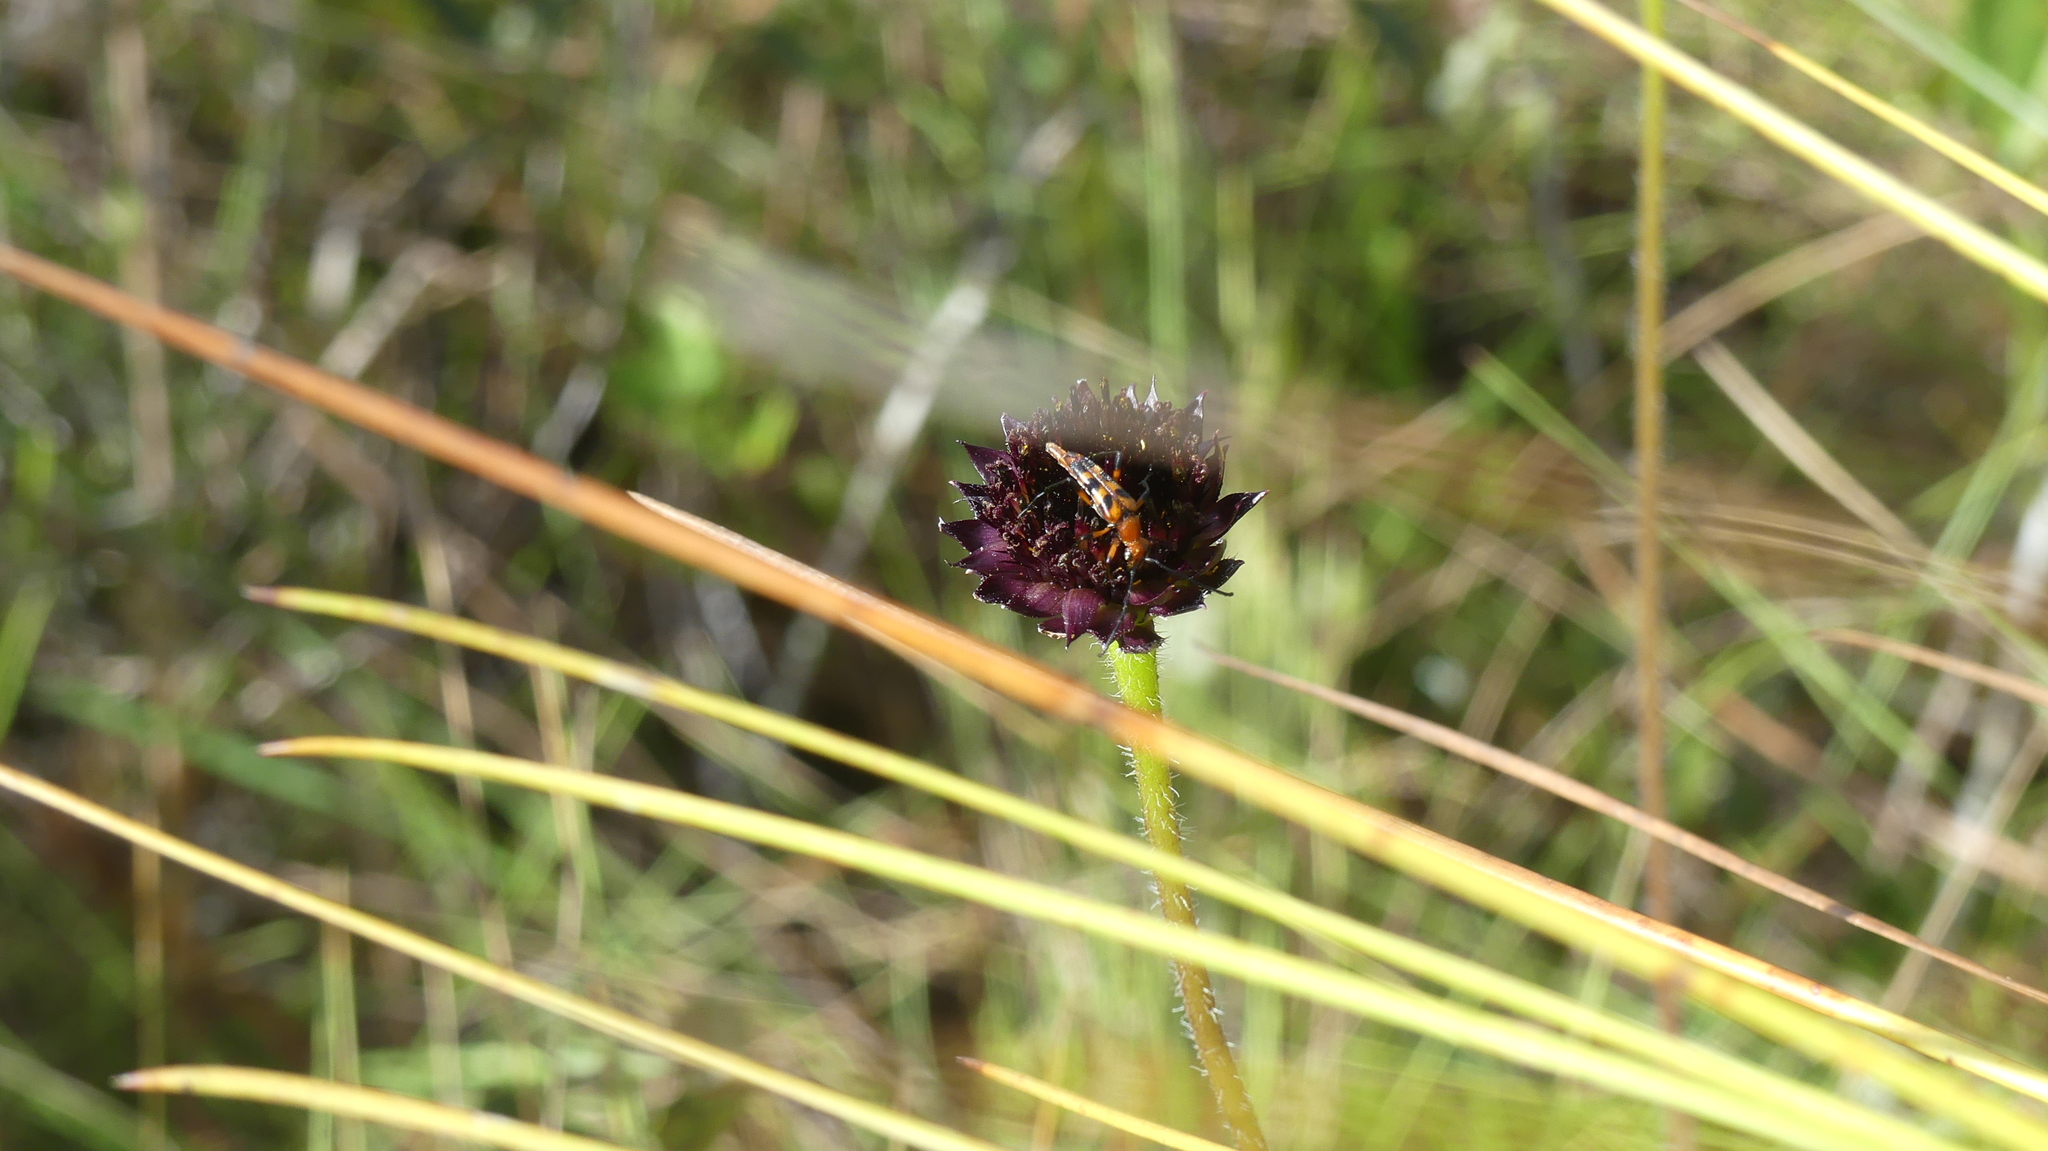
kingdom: Animalia
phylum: Arthropoda
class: Insecta
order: Coleoptera
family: Cerambycidae
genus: Strangalia
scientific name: Strangalia sexnotata
